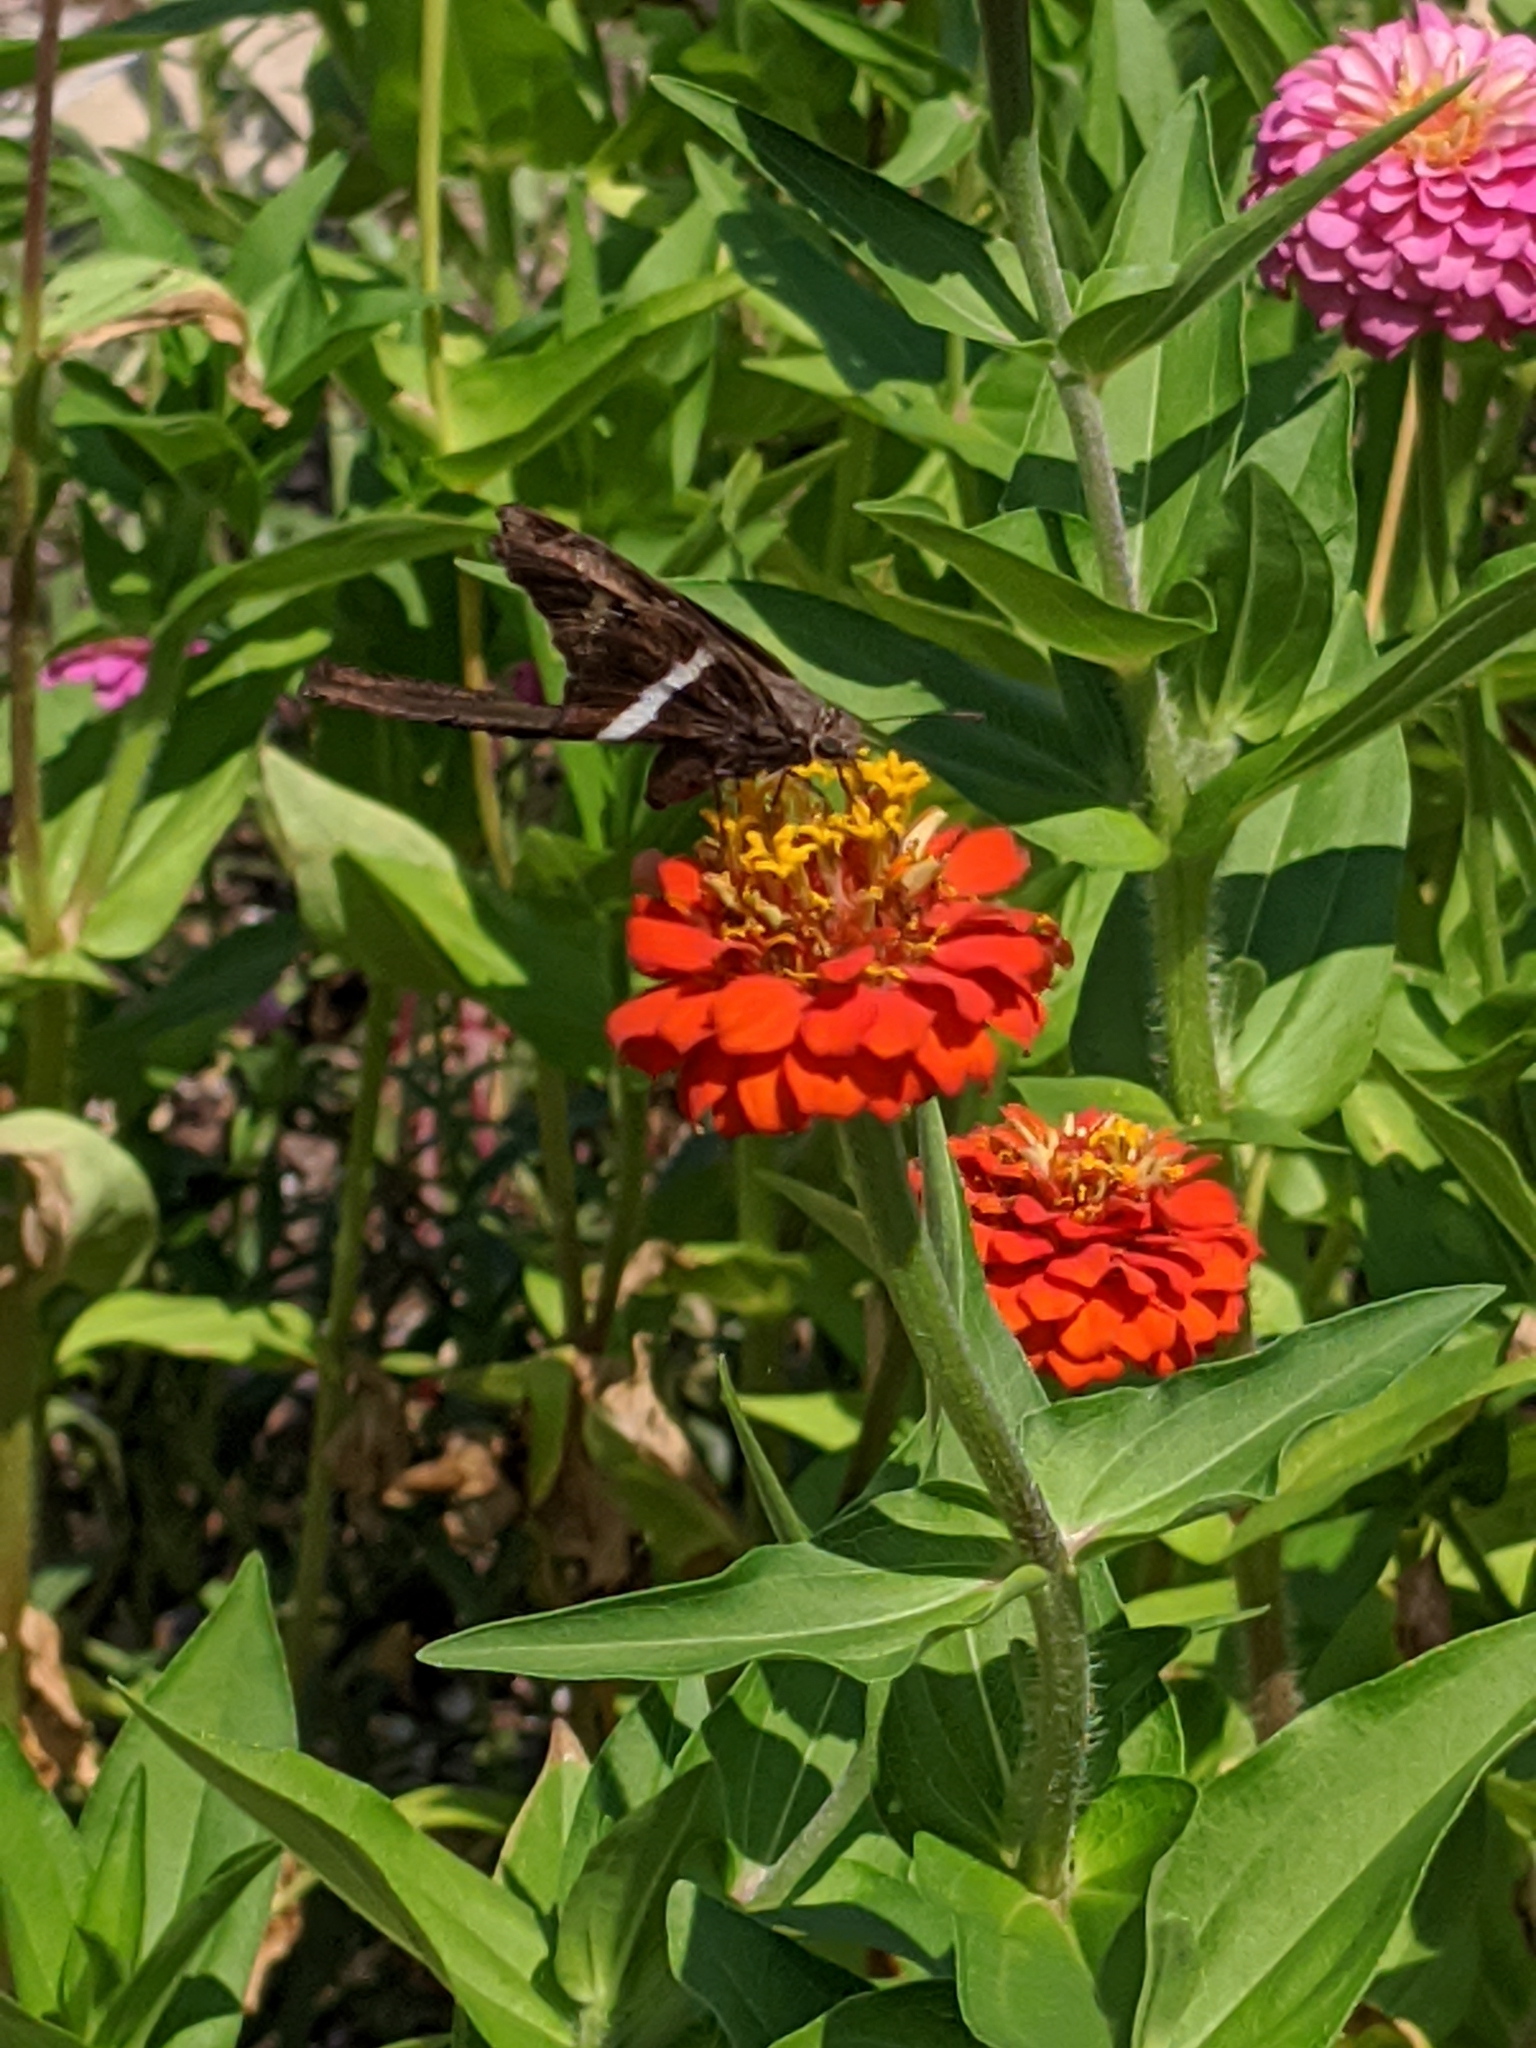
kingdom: Animalia
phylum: Arthropoda
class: Insecta
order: Lepidoptera
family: Hesperiidae
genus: Chioides
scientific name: Chioides catillus
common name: Silverbanded skipper
